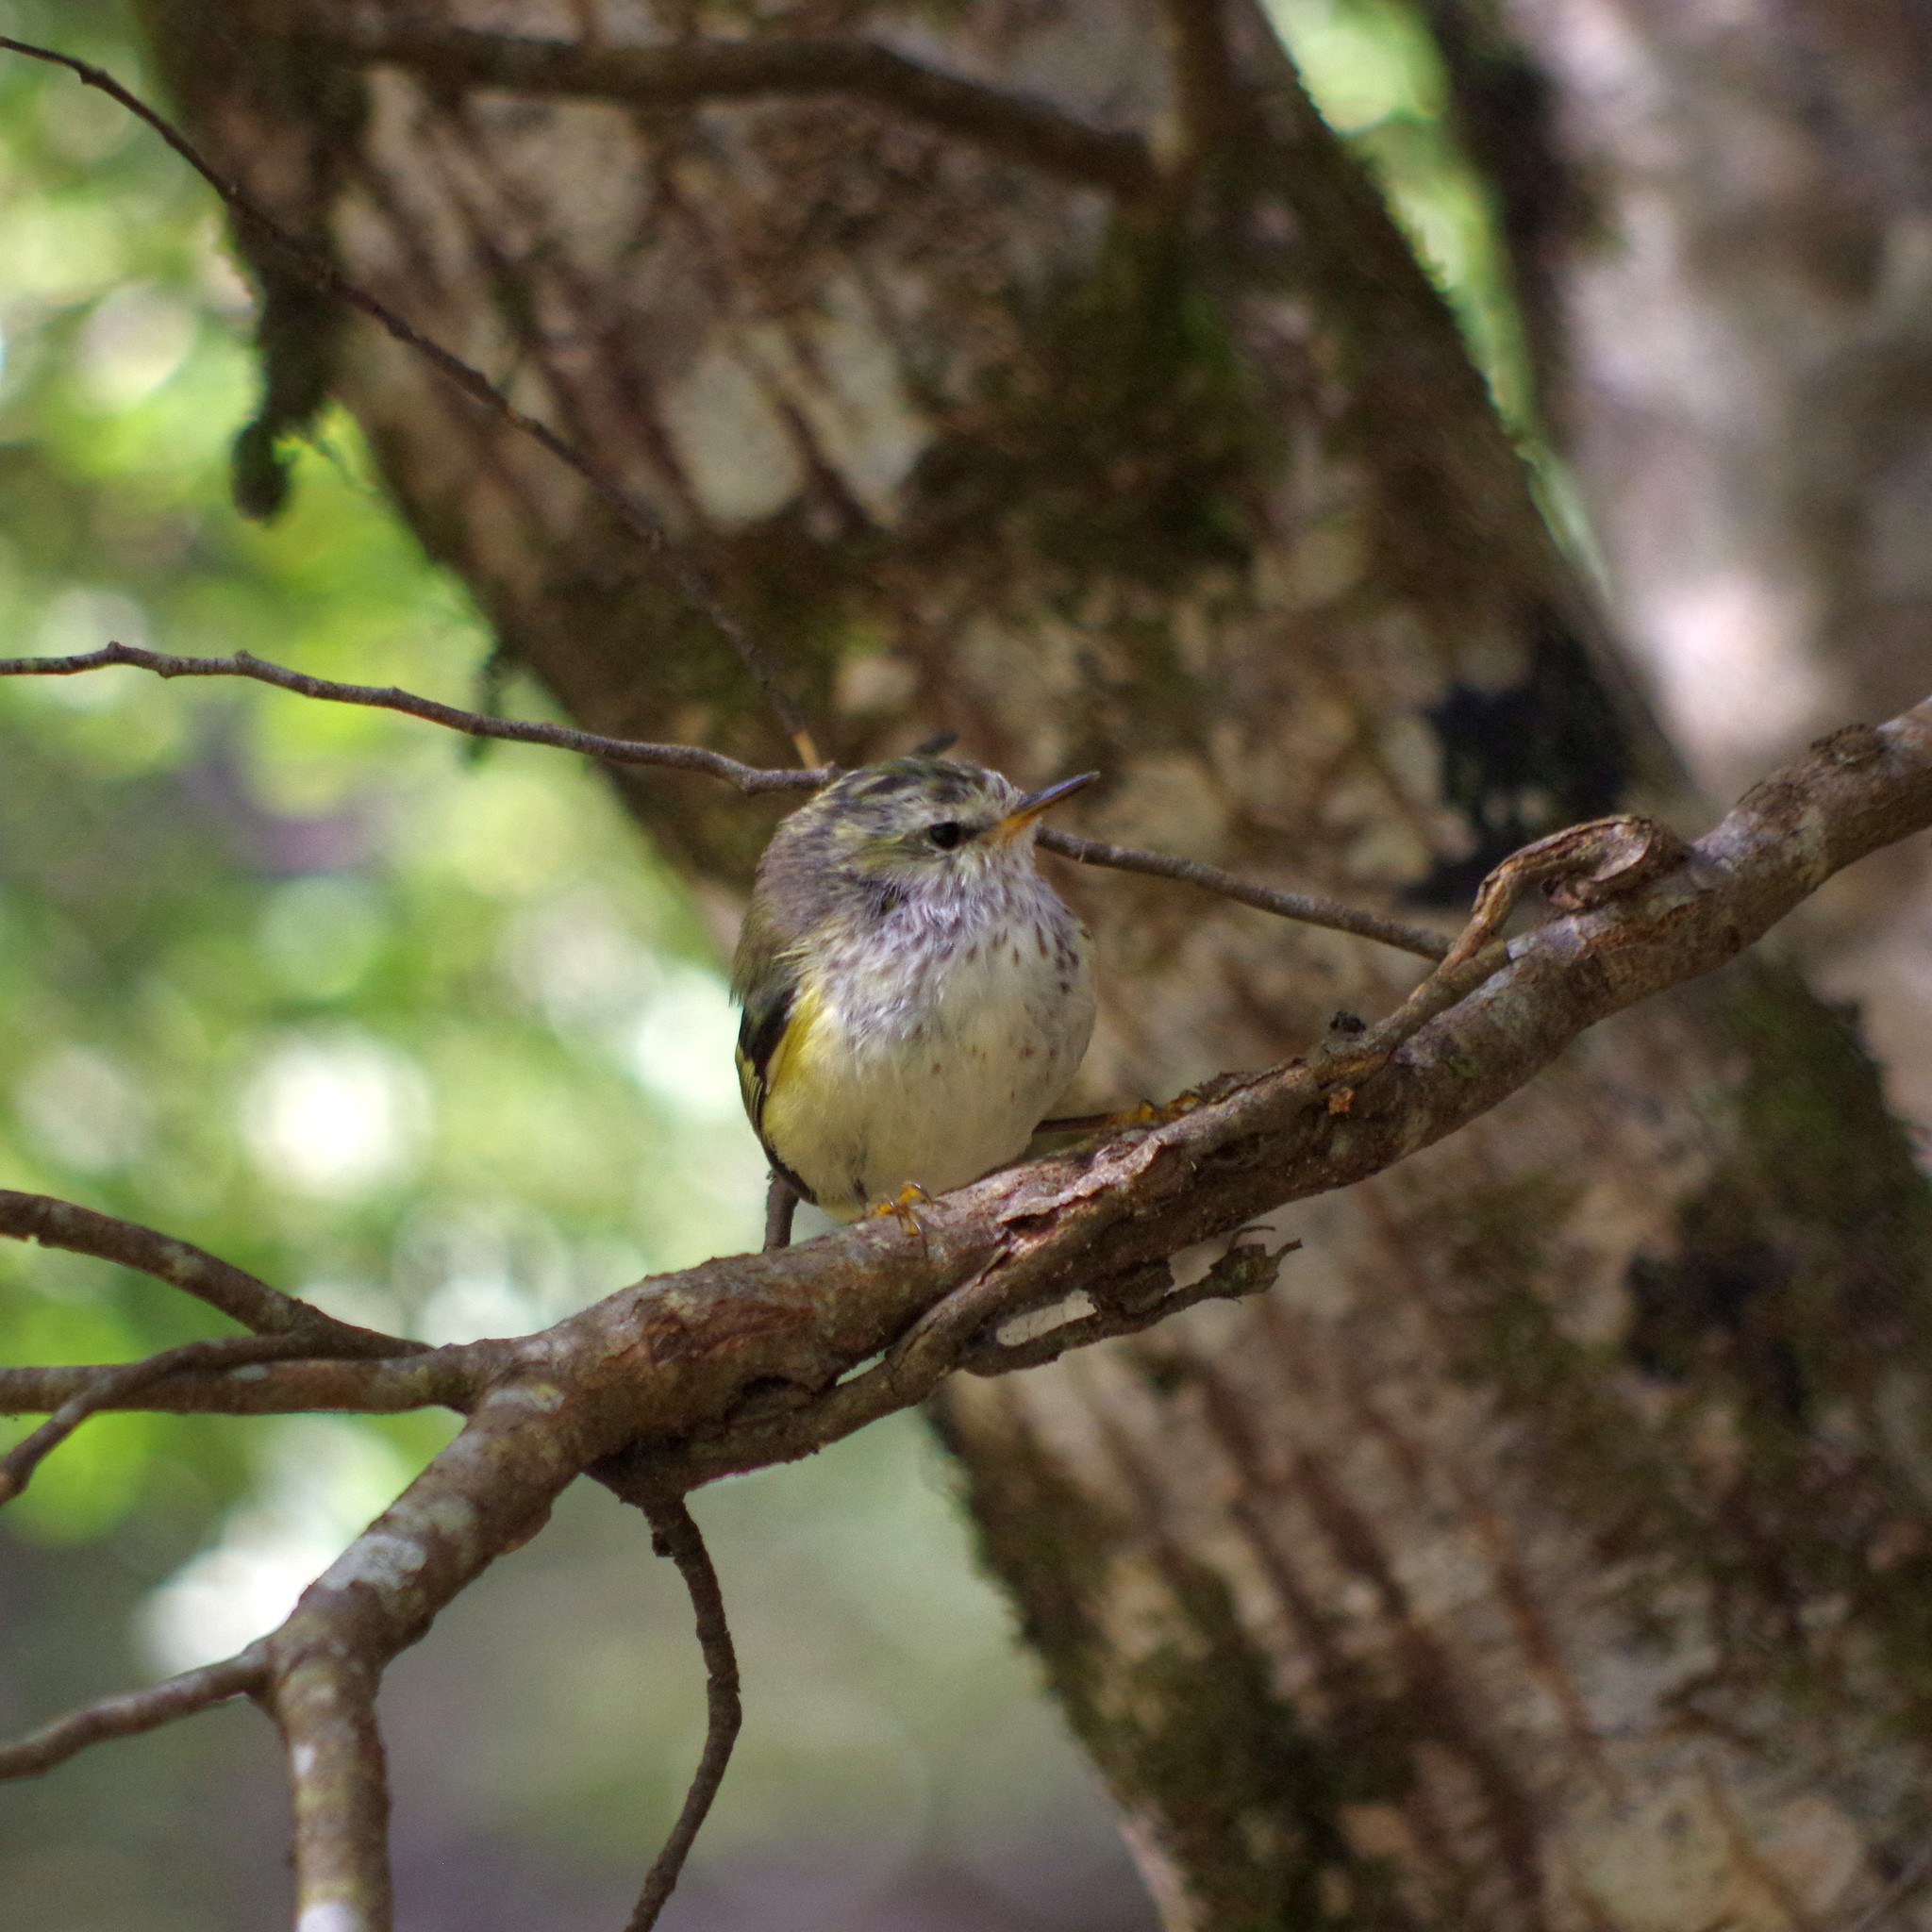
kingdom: Animalia
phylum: Chordata
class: Aves
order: Passeriformes
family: Acanthisittidae
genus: Acanthisitta
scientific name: Acanthisitta chloris
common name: Rifleman
